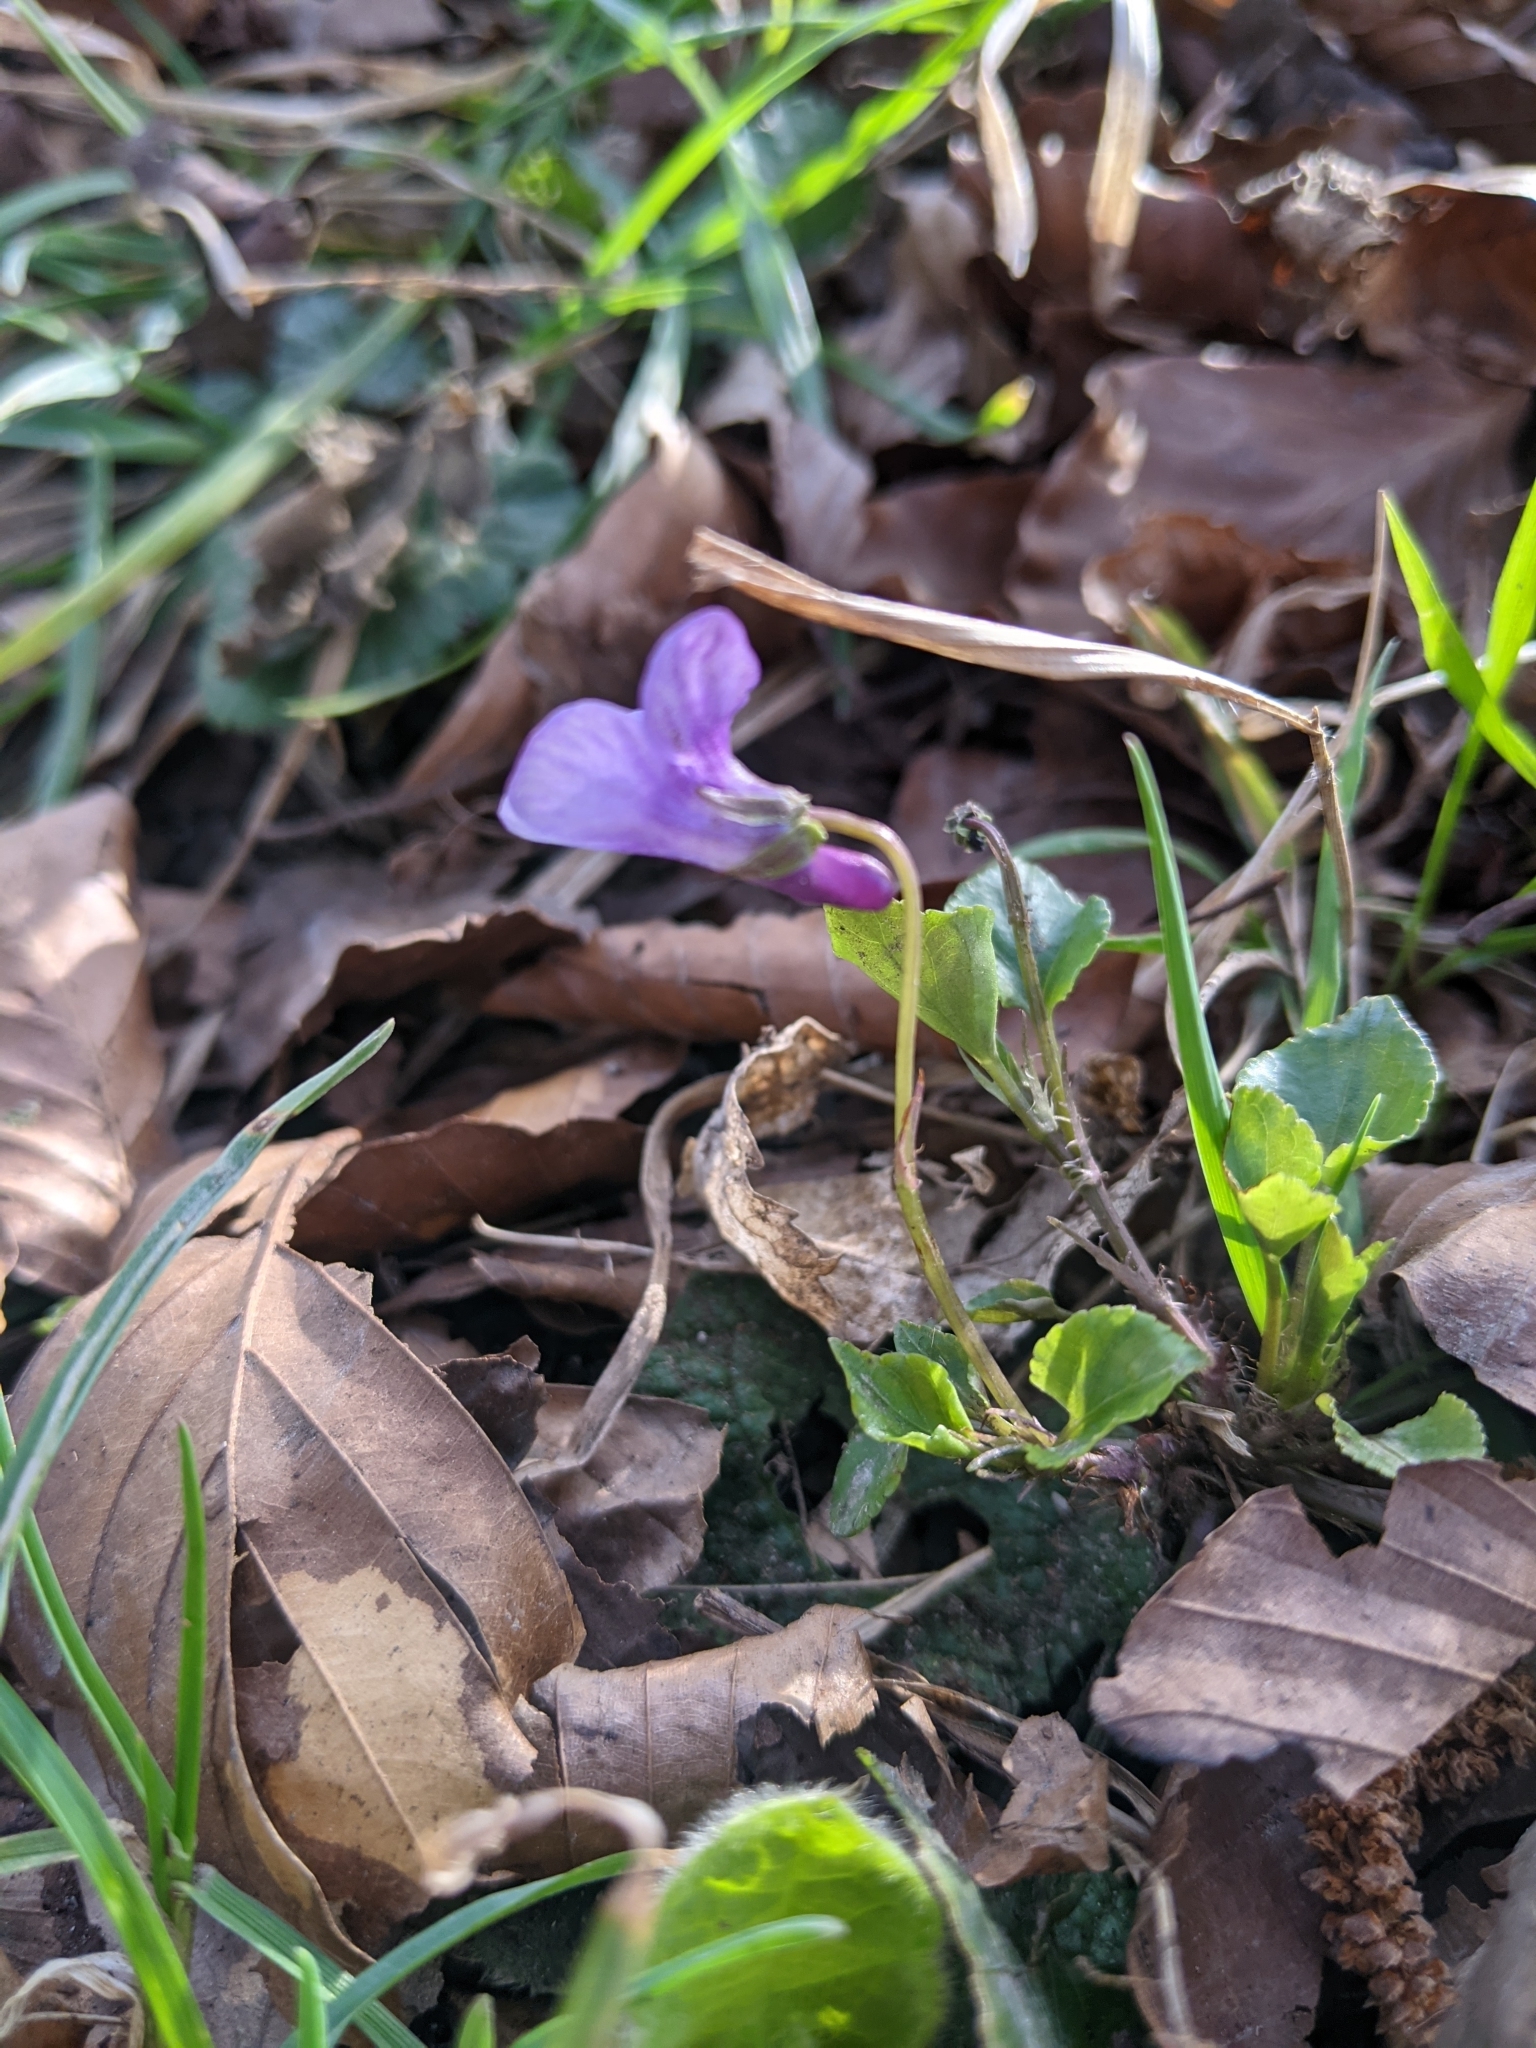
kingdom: Plantae
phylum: Tracheophyta
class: Magnoliopsida
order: Malpighiales
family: Violaceae
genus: Viola
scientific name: Viola reichenbachiana
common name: Early dog-violet
